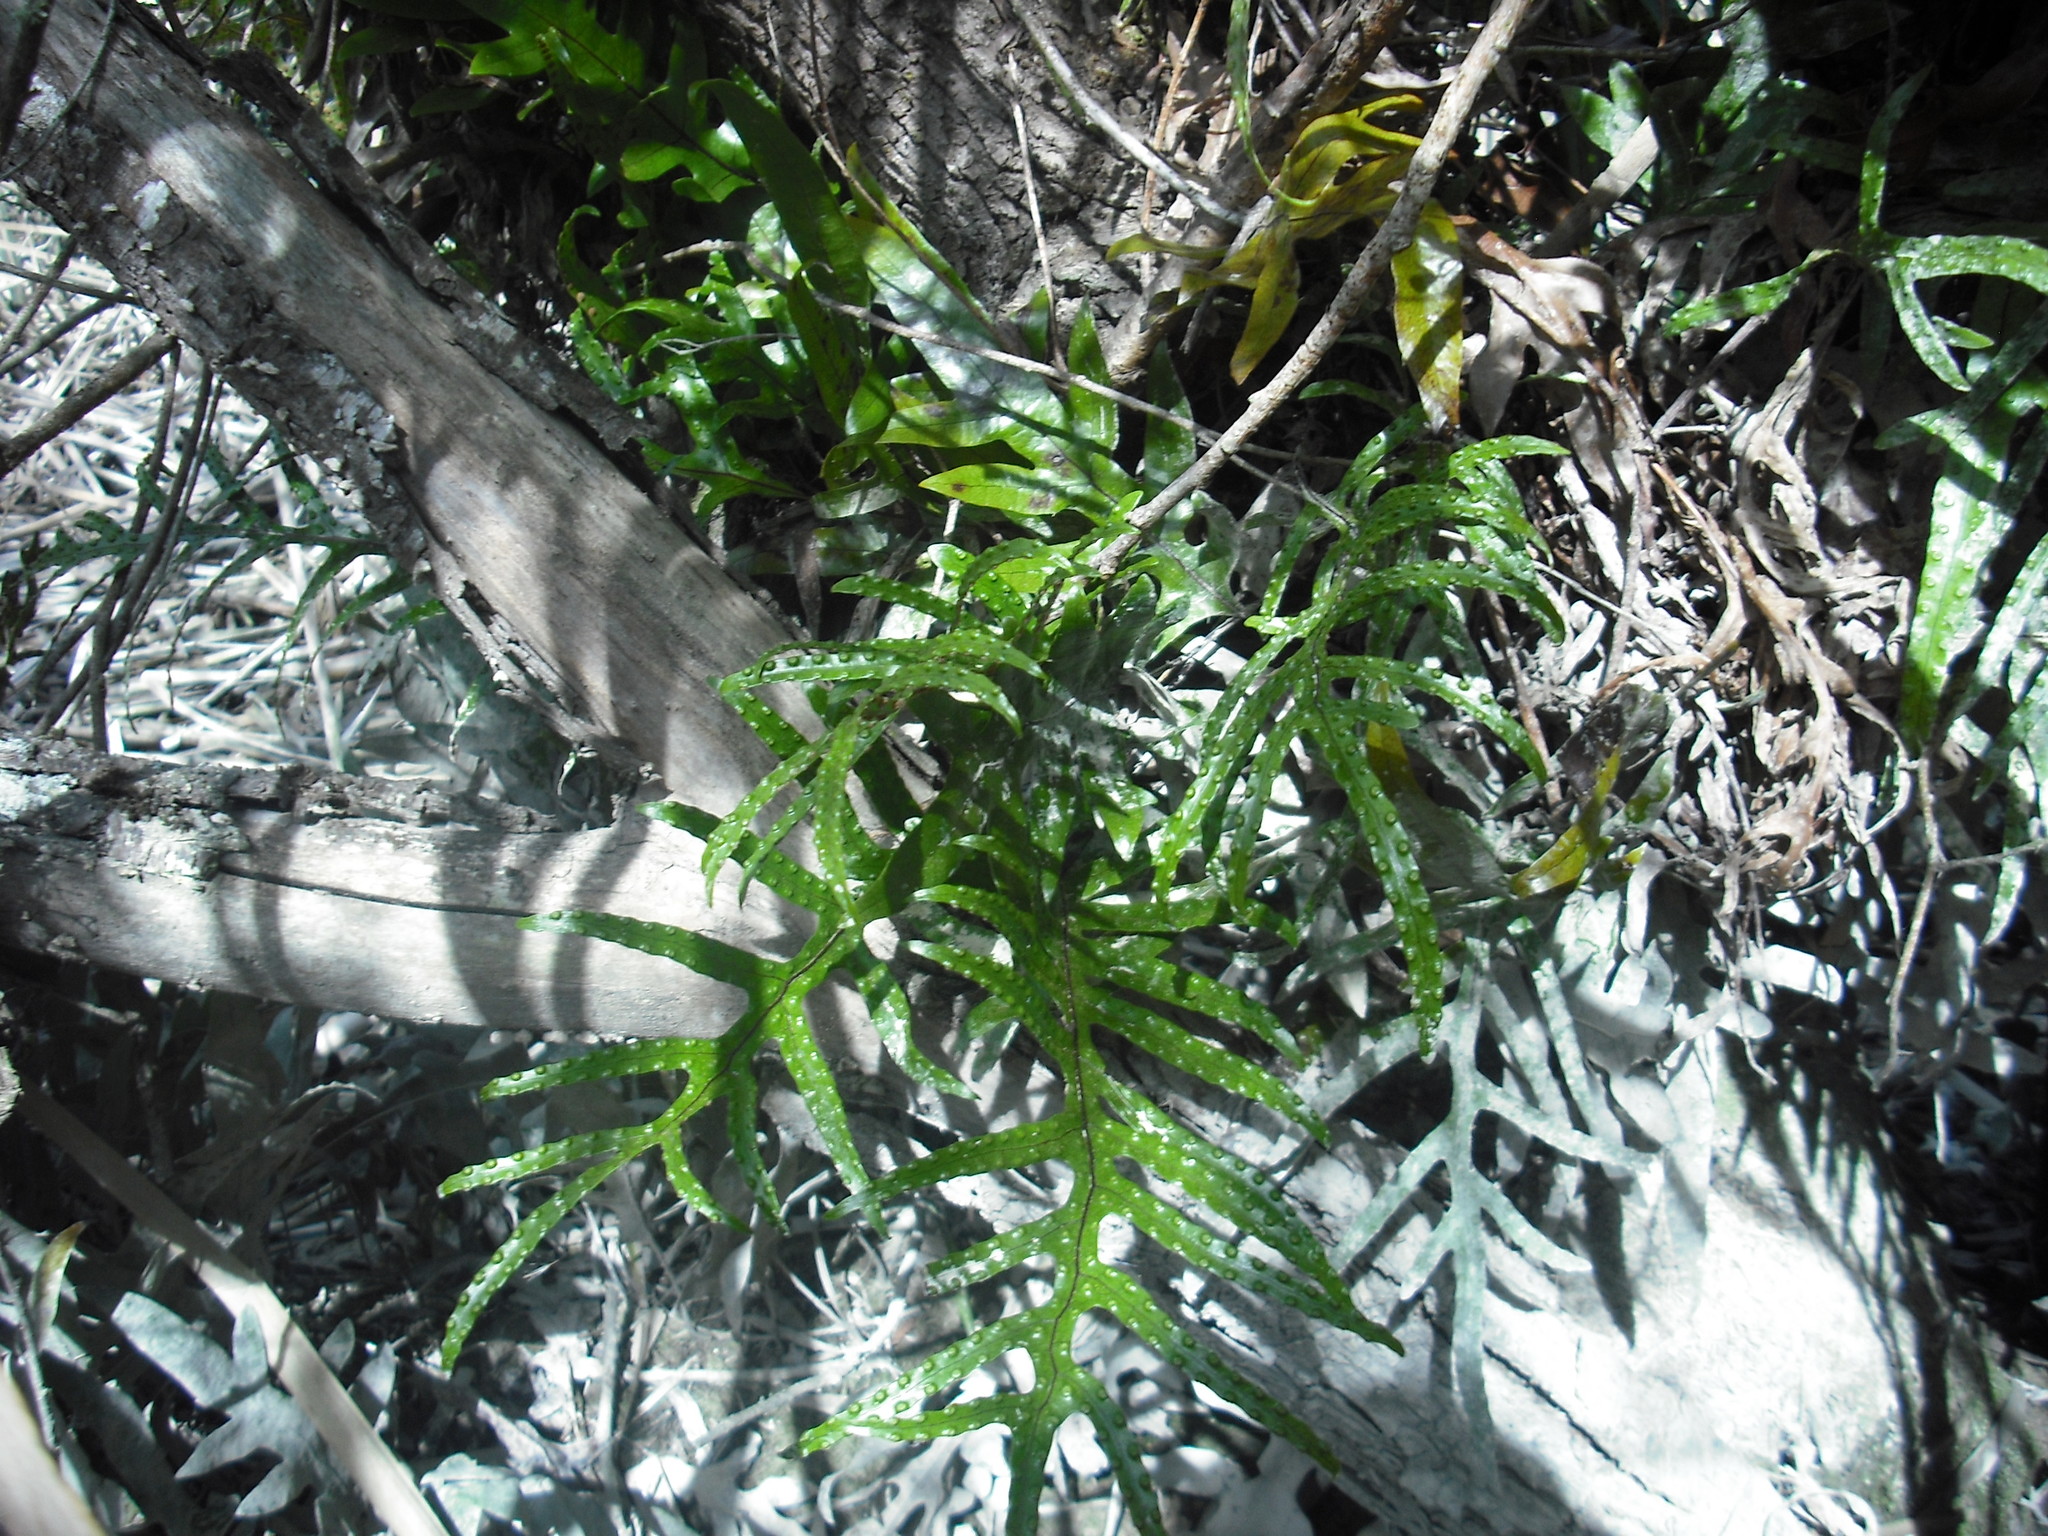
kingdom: Plantae
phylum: Tracheophyta
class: Polypodiopsida
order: Polypodiales
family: Polypodiaceae
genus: Lecanopteris
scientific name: Lecanopteris pustulata
